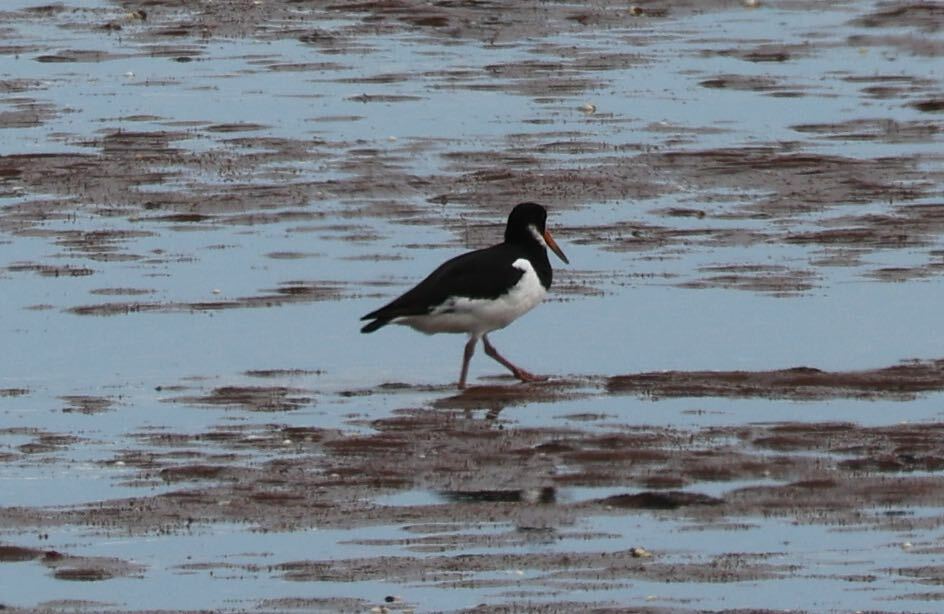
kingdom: Animalia
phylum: Chordata
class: Aves
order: Charadriiformes
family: Haematopodidae
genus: Haematopus
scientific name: Haematopus ostralegus
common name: Eurasian oystercatcher
